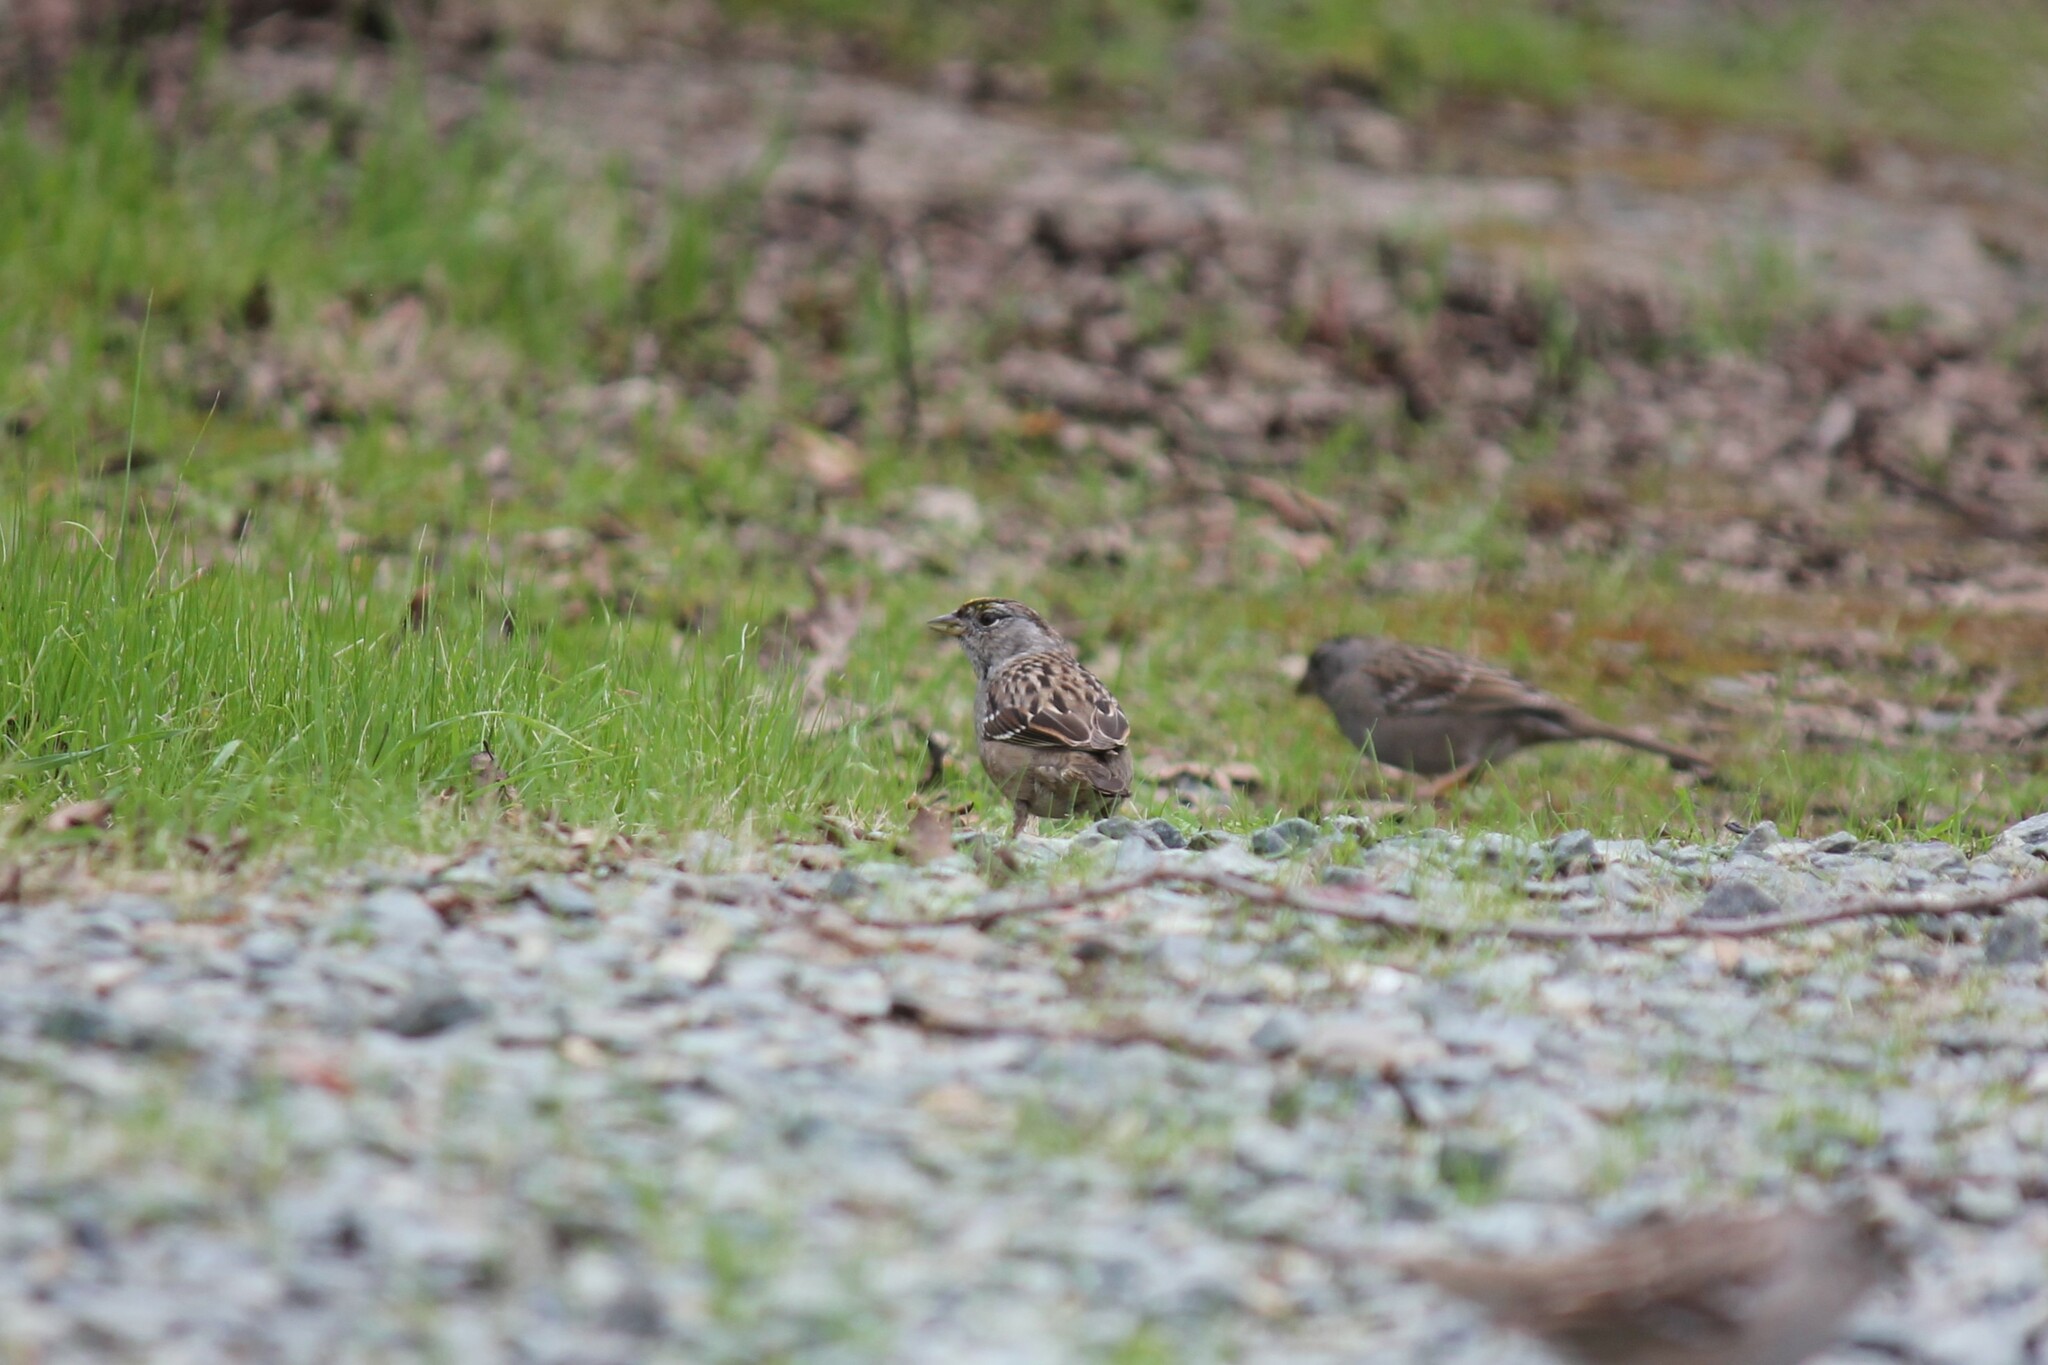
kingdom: Animalia
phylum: Chordata
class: Aves
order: Passeriformes
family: Passerellidae
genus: Zonotrichia
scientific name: Zonotrichia atricapilla
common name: Golden-crowned sparrow
